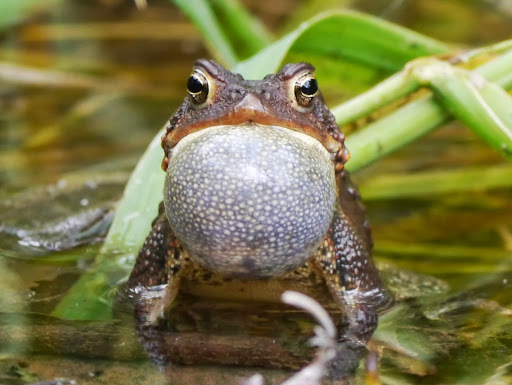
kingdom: Animalia
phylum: Chordata
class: Amphibia
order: Anura
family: Bufonidae
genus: Anaxyrus
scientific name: Anaxyrus americanus
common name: American toad
